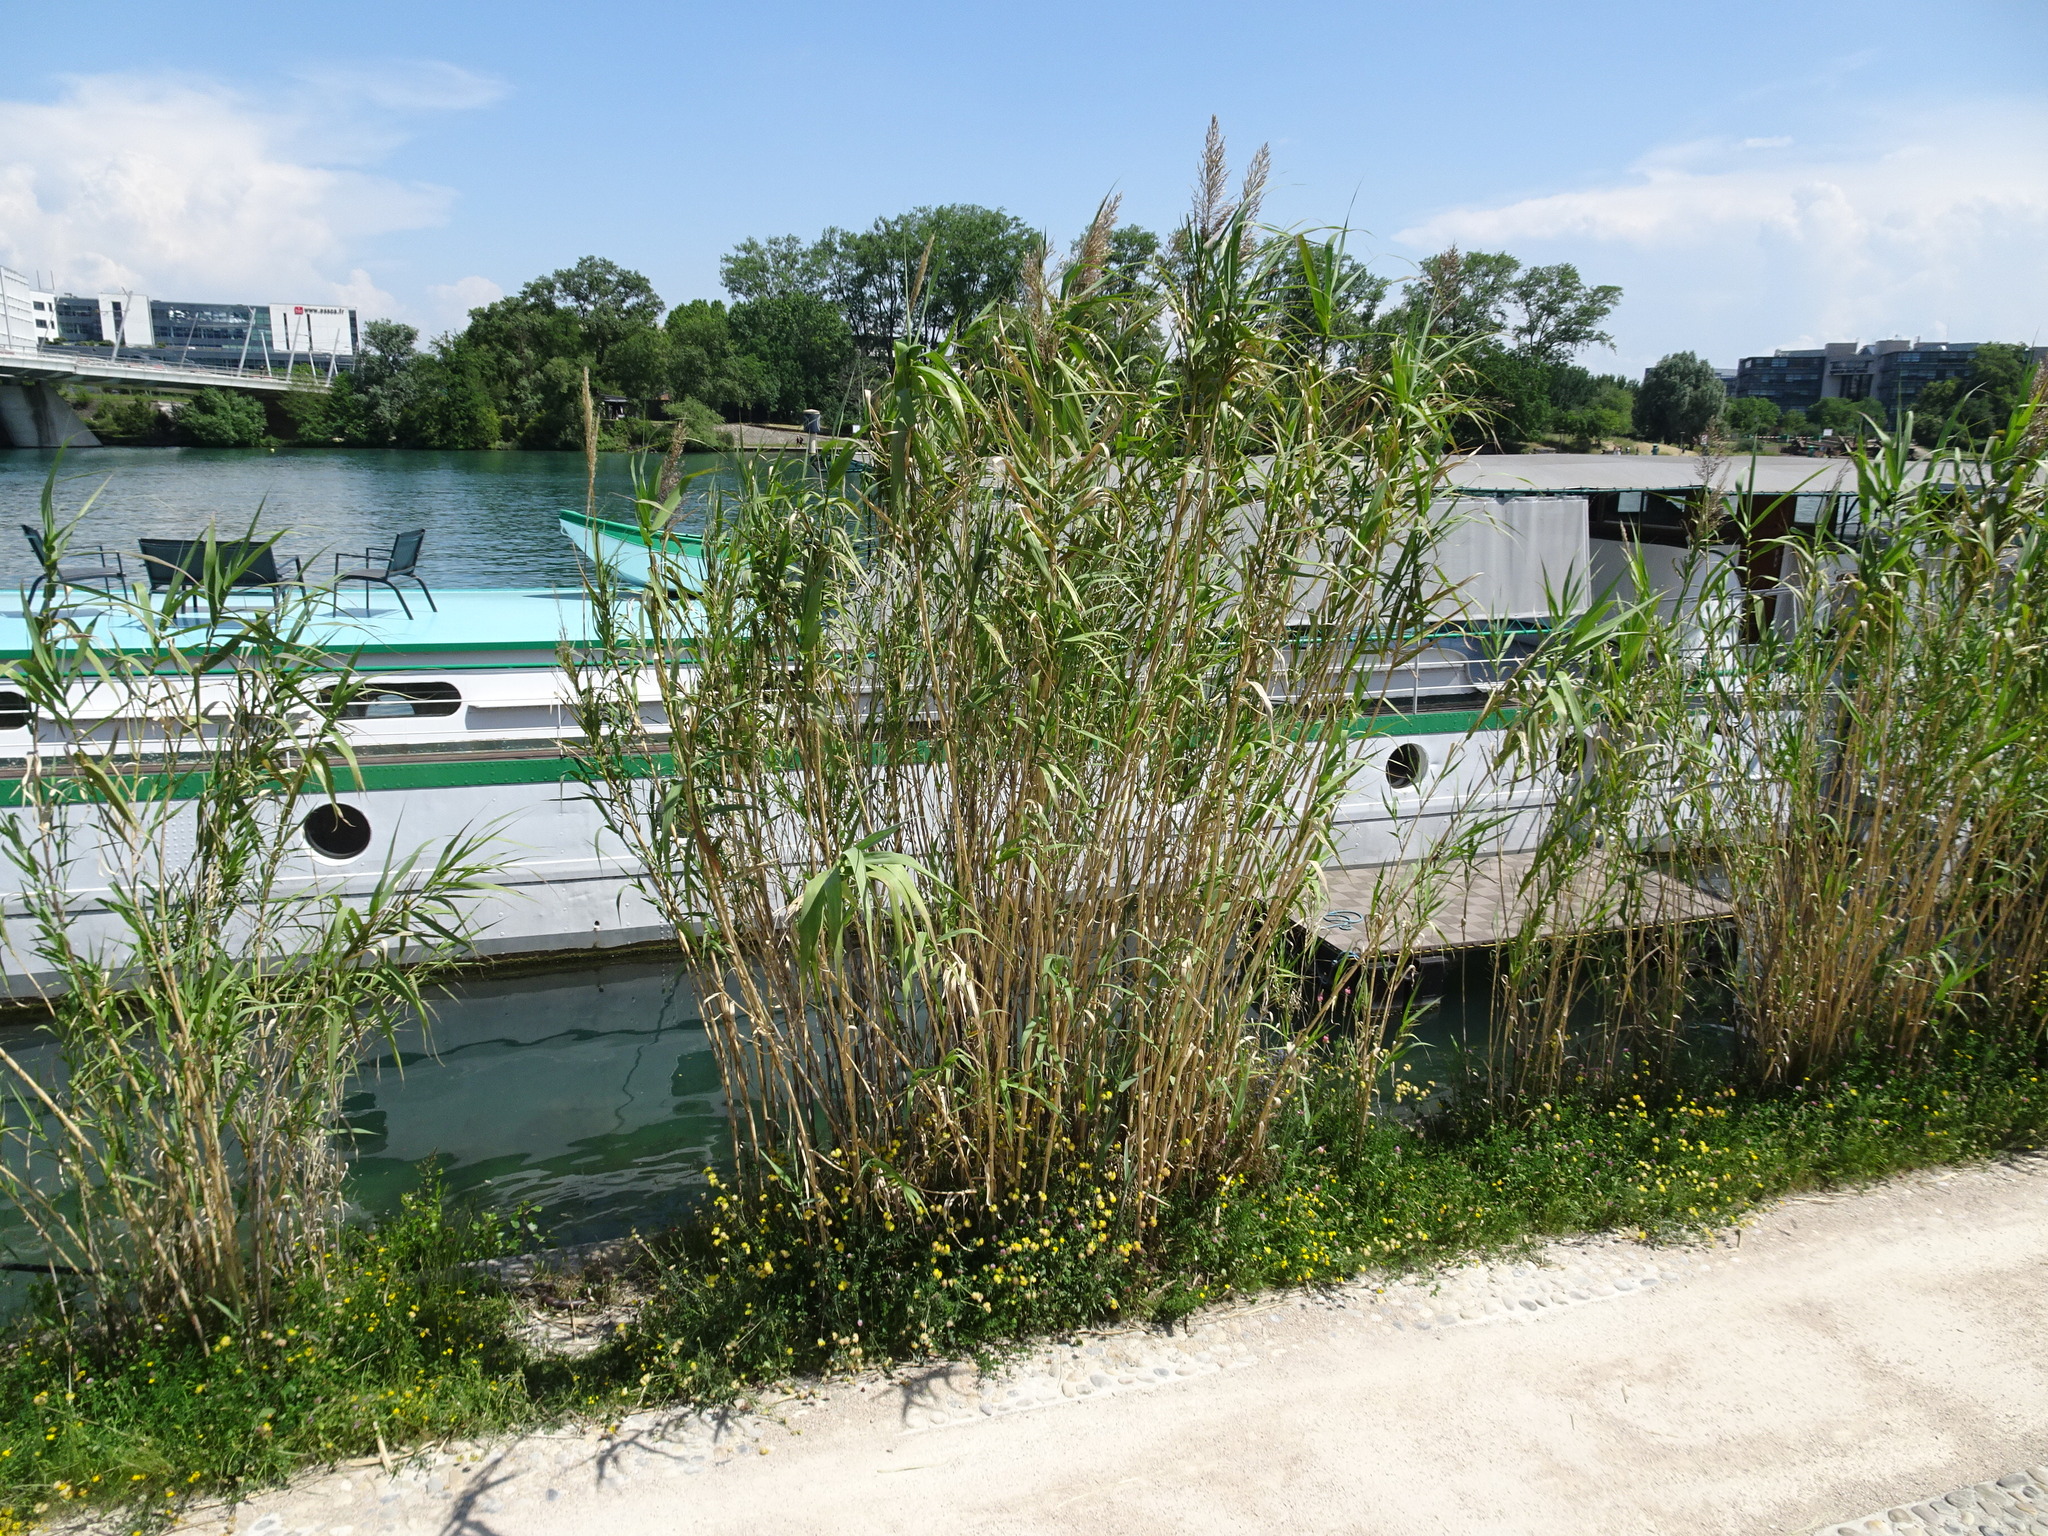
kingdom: Plantae
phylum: Tracheophyta
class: Liliopsida
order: Poales
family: Poaceae
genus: Arundo
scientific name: Arundo donax
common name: Giant reed
